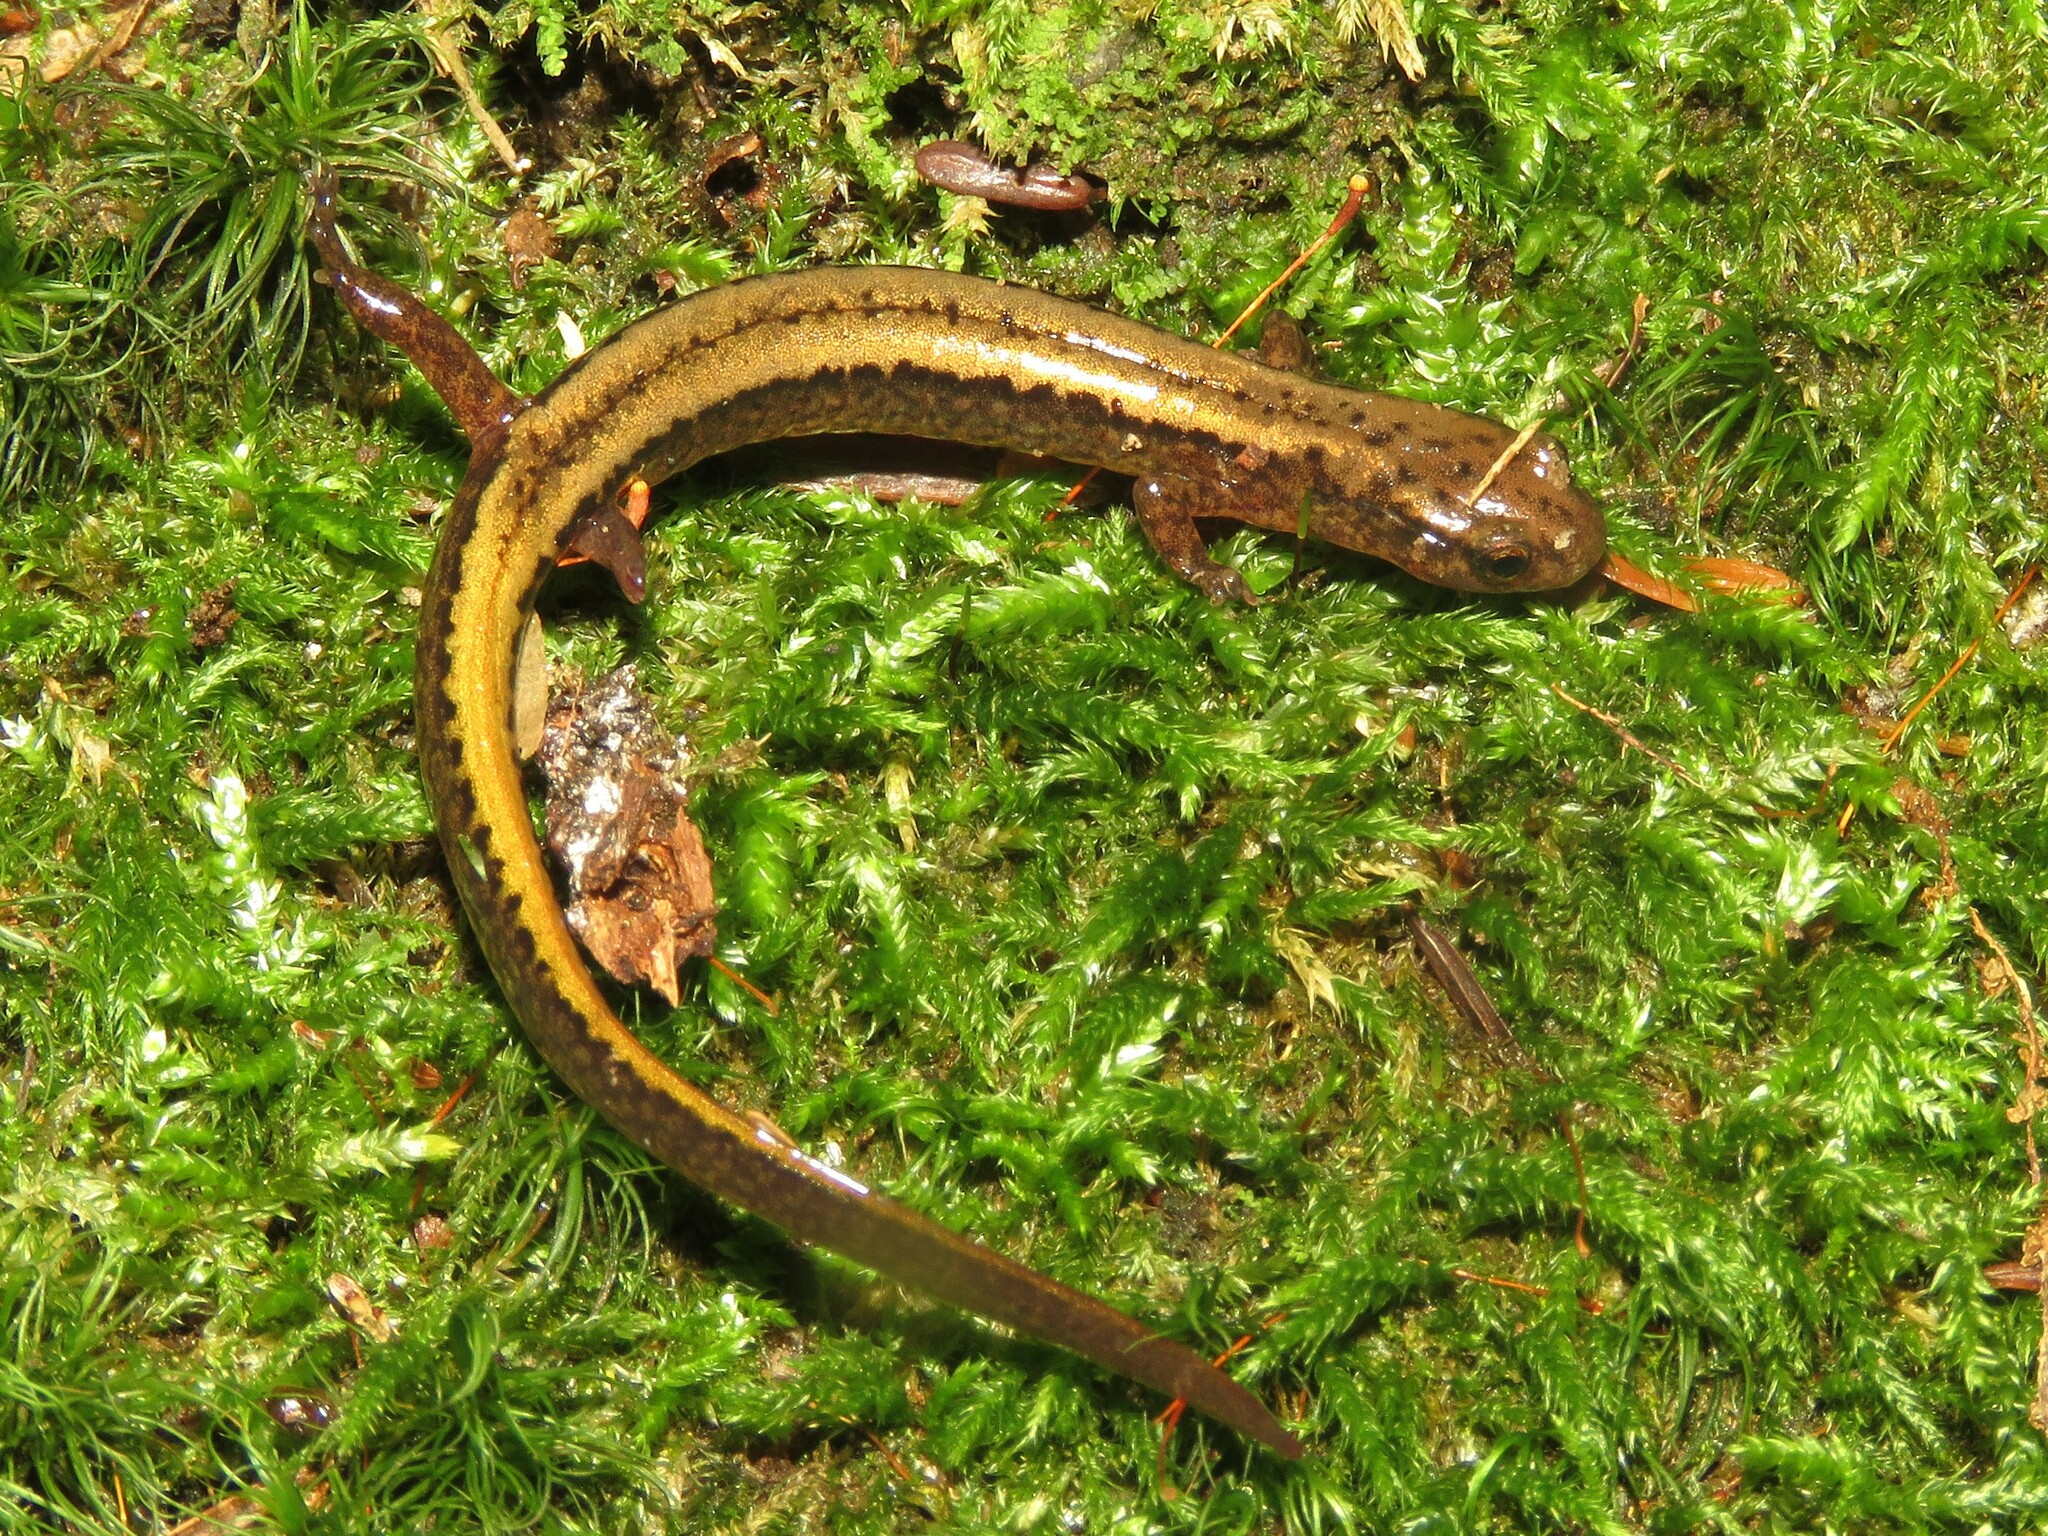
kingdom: Animalia
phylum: Chordata
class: Amphibia
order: Caudata
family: Plethodontidae
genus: Eurycea
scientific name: Eurycea bislineata
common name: Northern two-lined salamander
